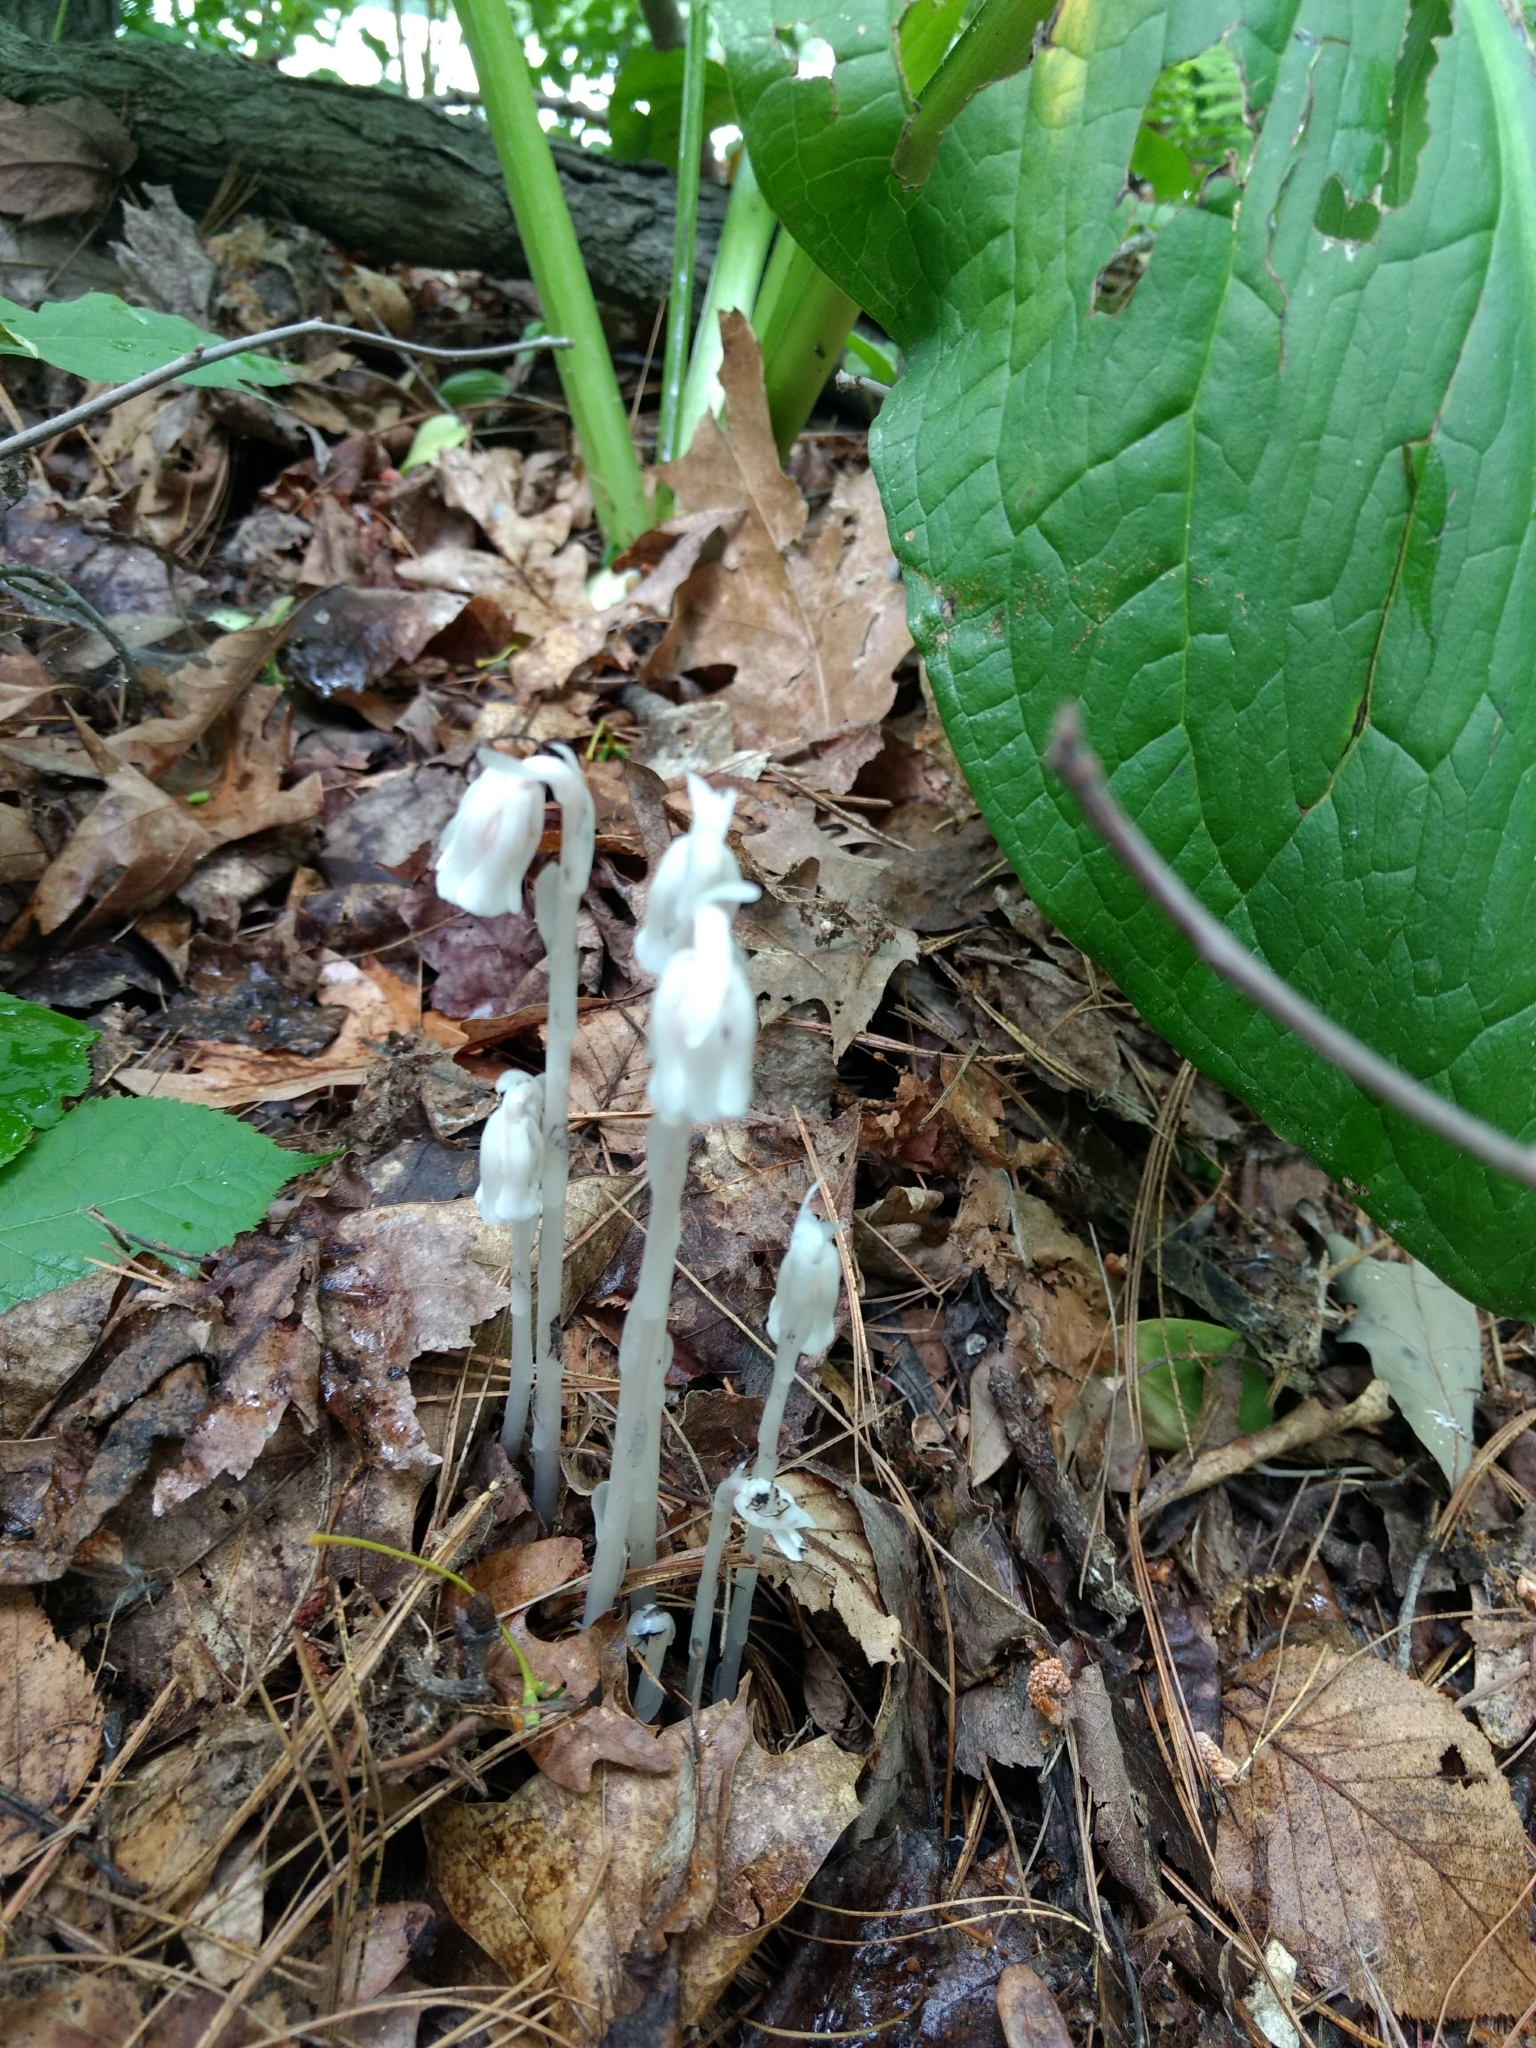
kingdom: Plantae
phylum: Tracheophyta
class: Magnoliopsida
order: Ericales
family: Ericaceae
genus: Monotropa
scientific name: Monotropa uniflora
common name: Convulsion root
